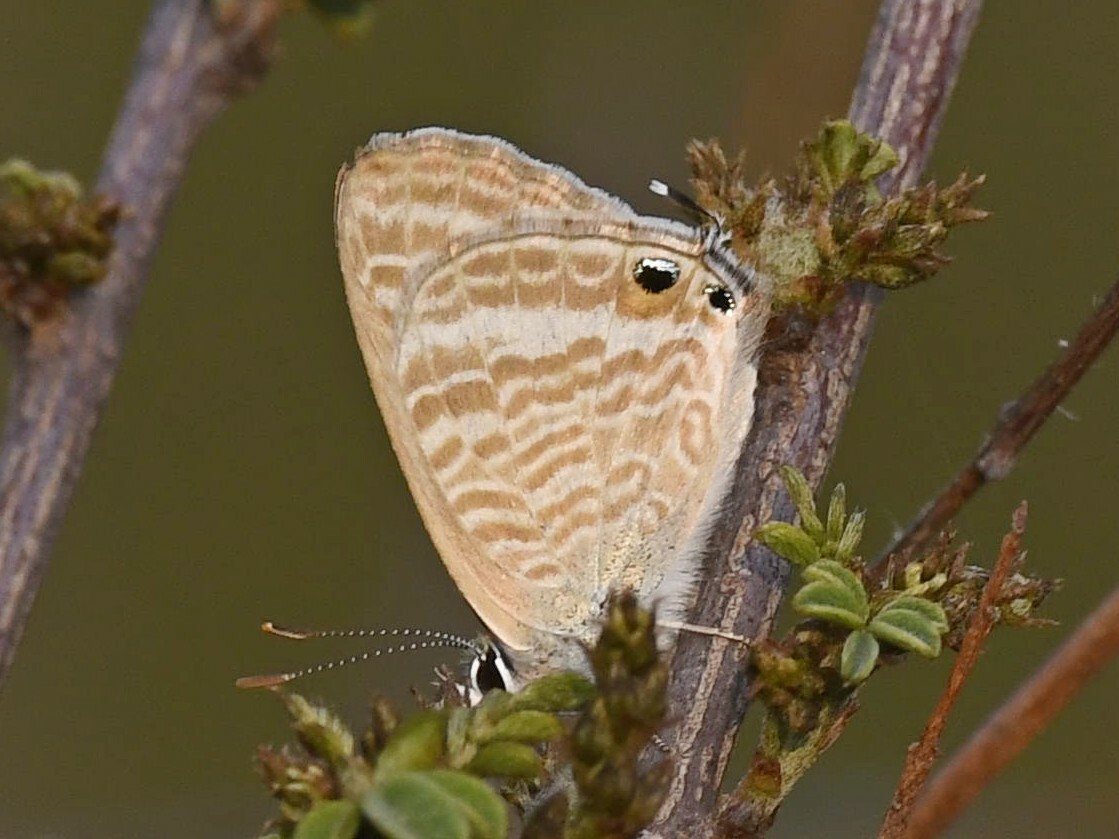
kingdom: Animalia
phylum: Arthropoda
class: Insecta
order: Lepidoptera
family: Lycaenidae
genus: Lampides
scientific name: Lampides boeticus
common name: Long-tailed blue
